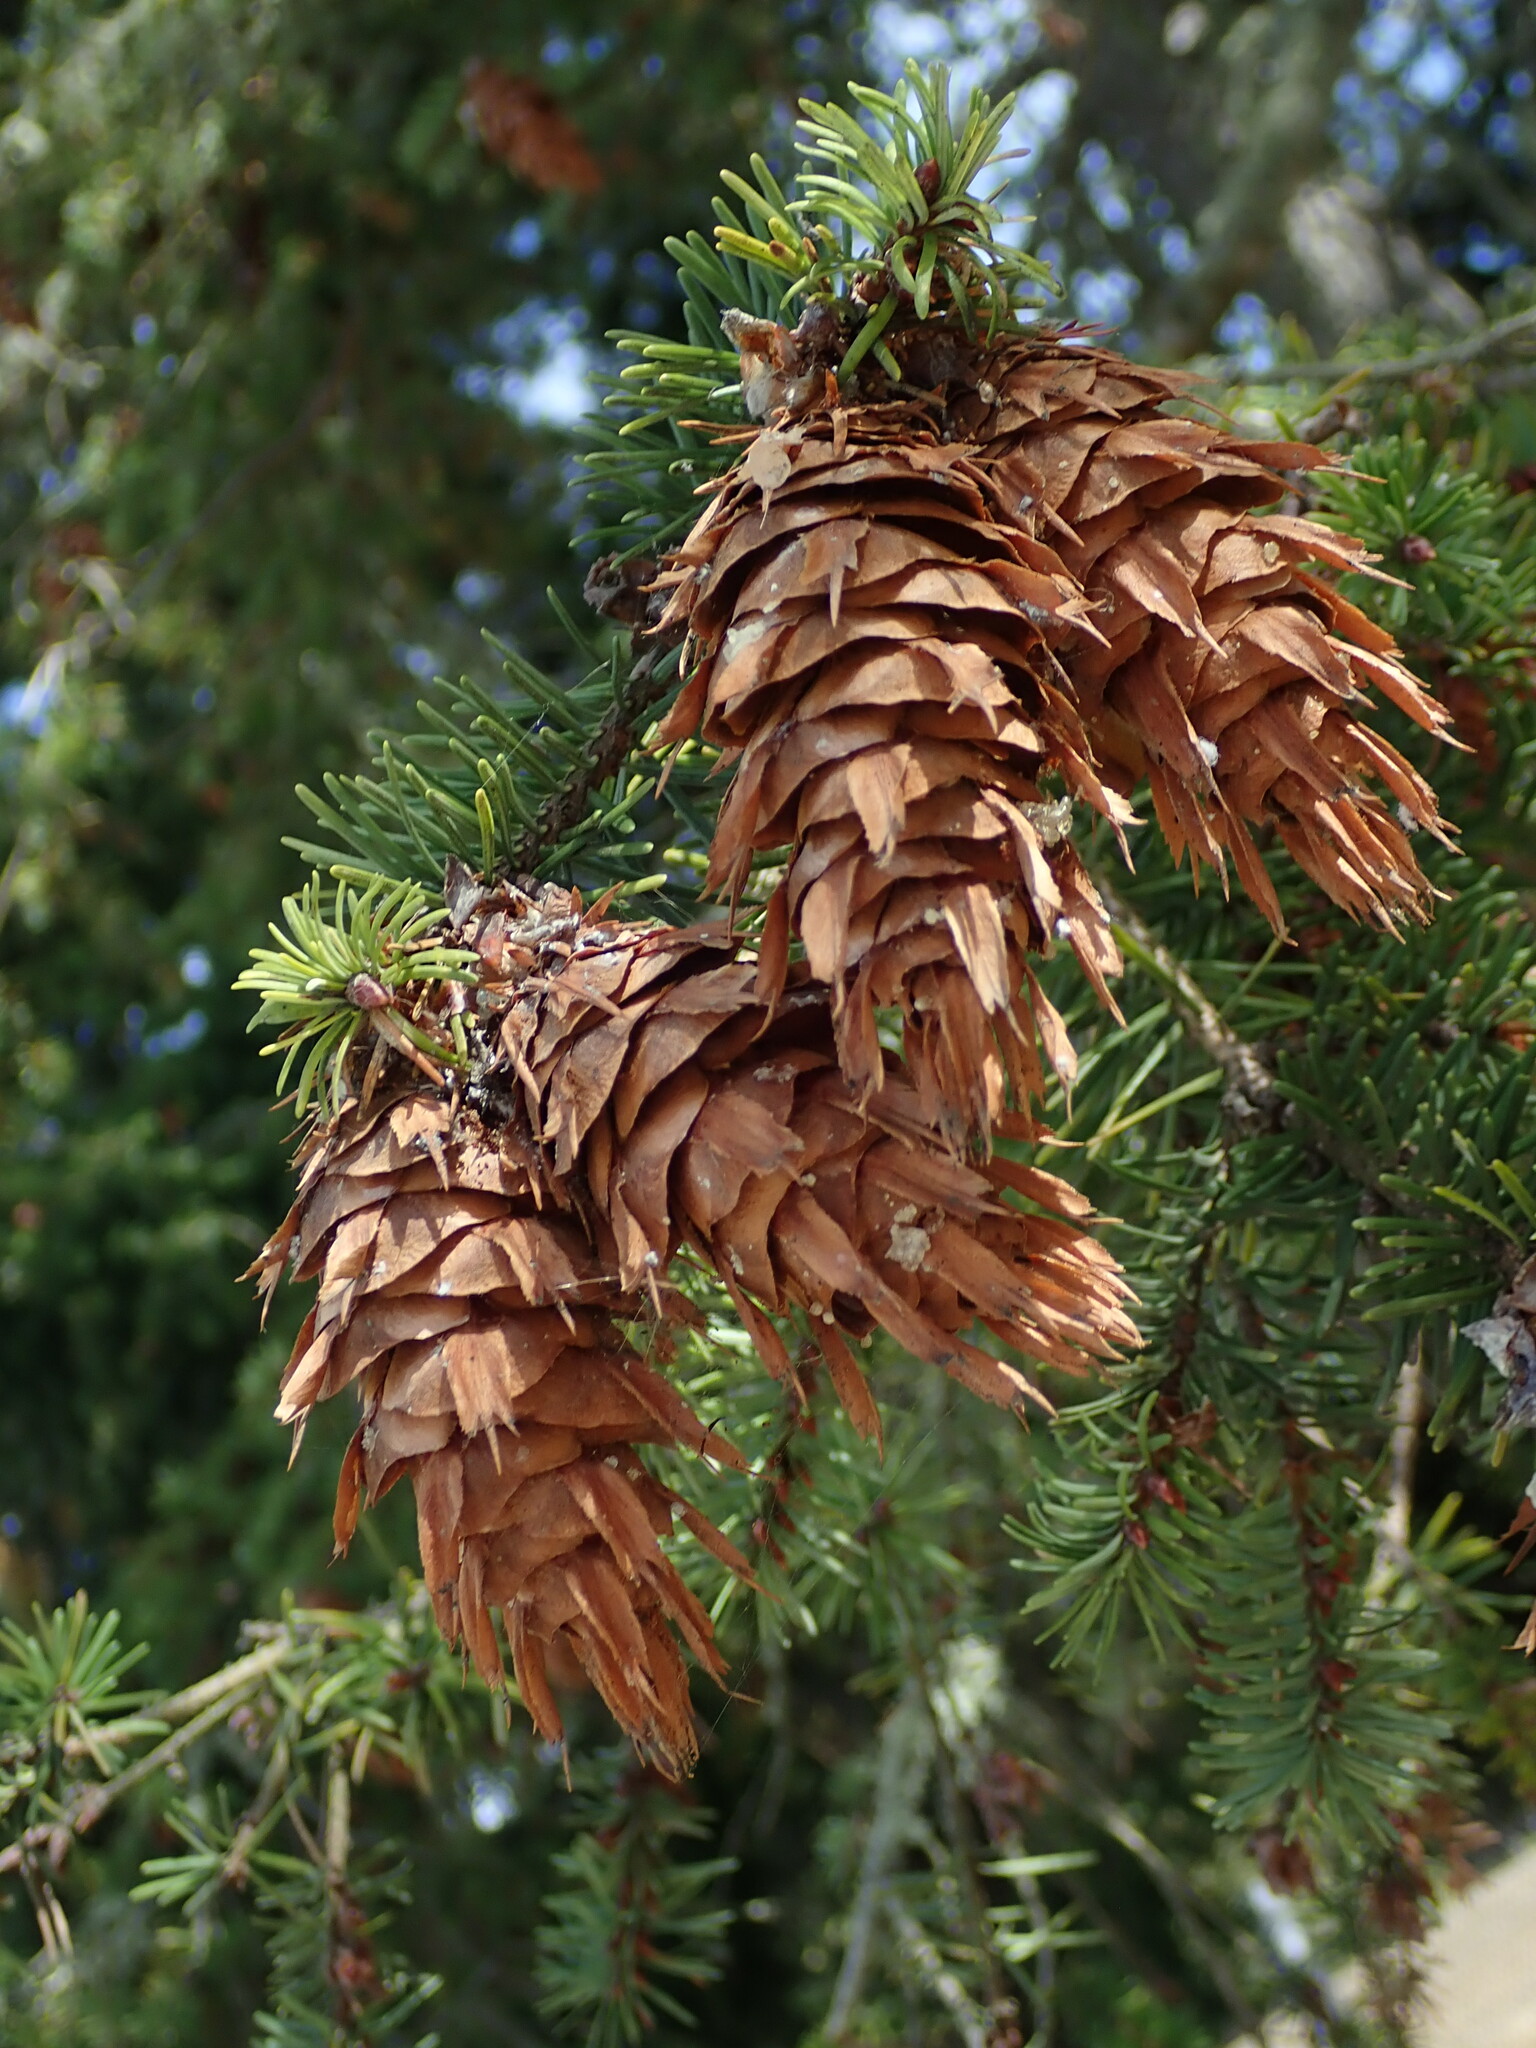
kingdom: Plantae
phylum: Tracheophyta
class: Pinopsida
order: Pinales
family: Pinaceae
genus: Pseudotsuga
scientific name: Pseudotsuga menziesii
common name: Douglas fir
